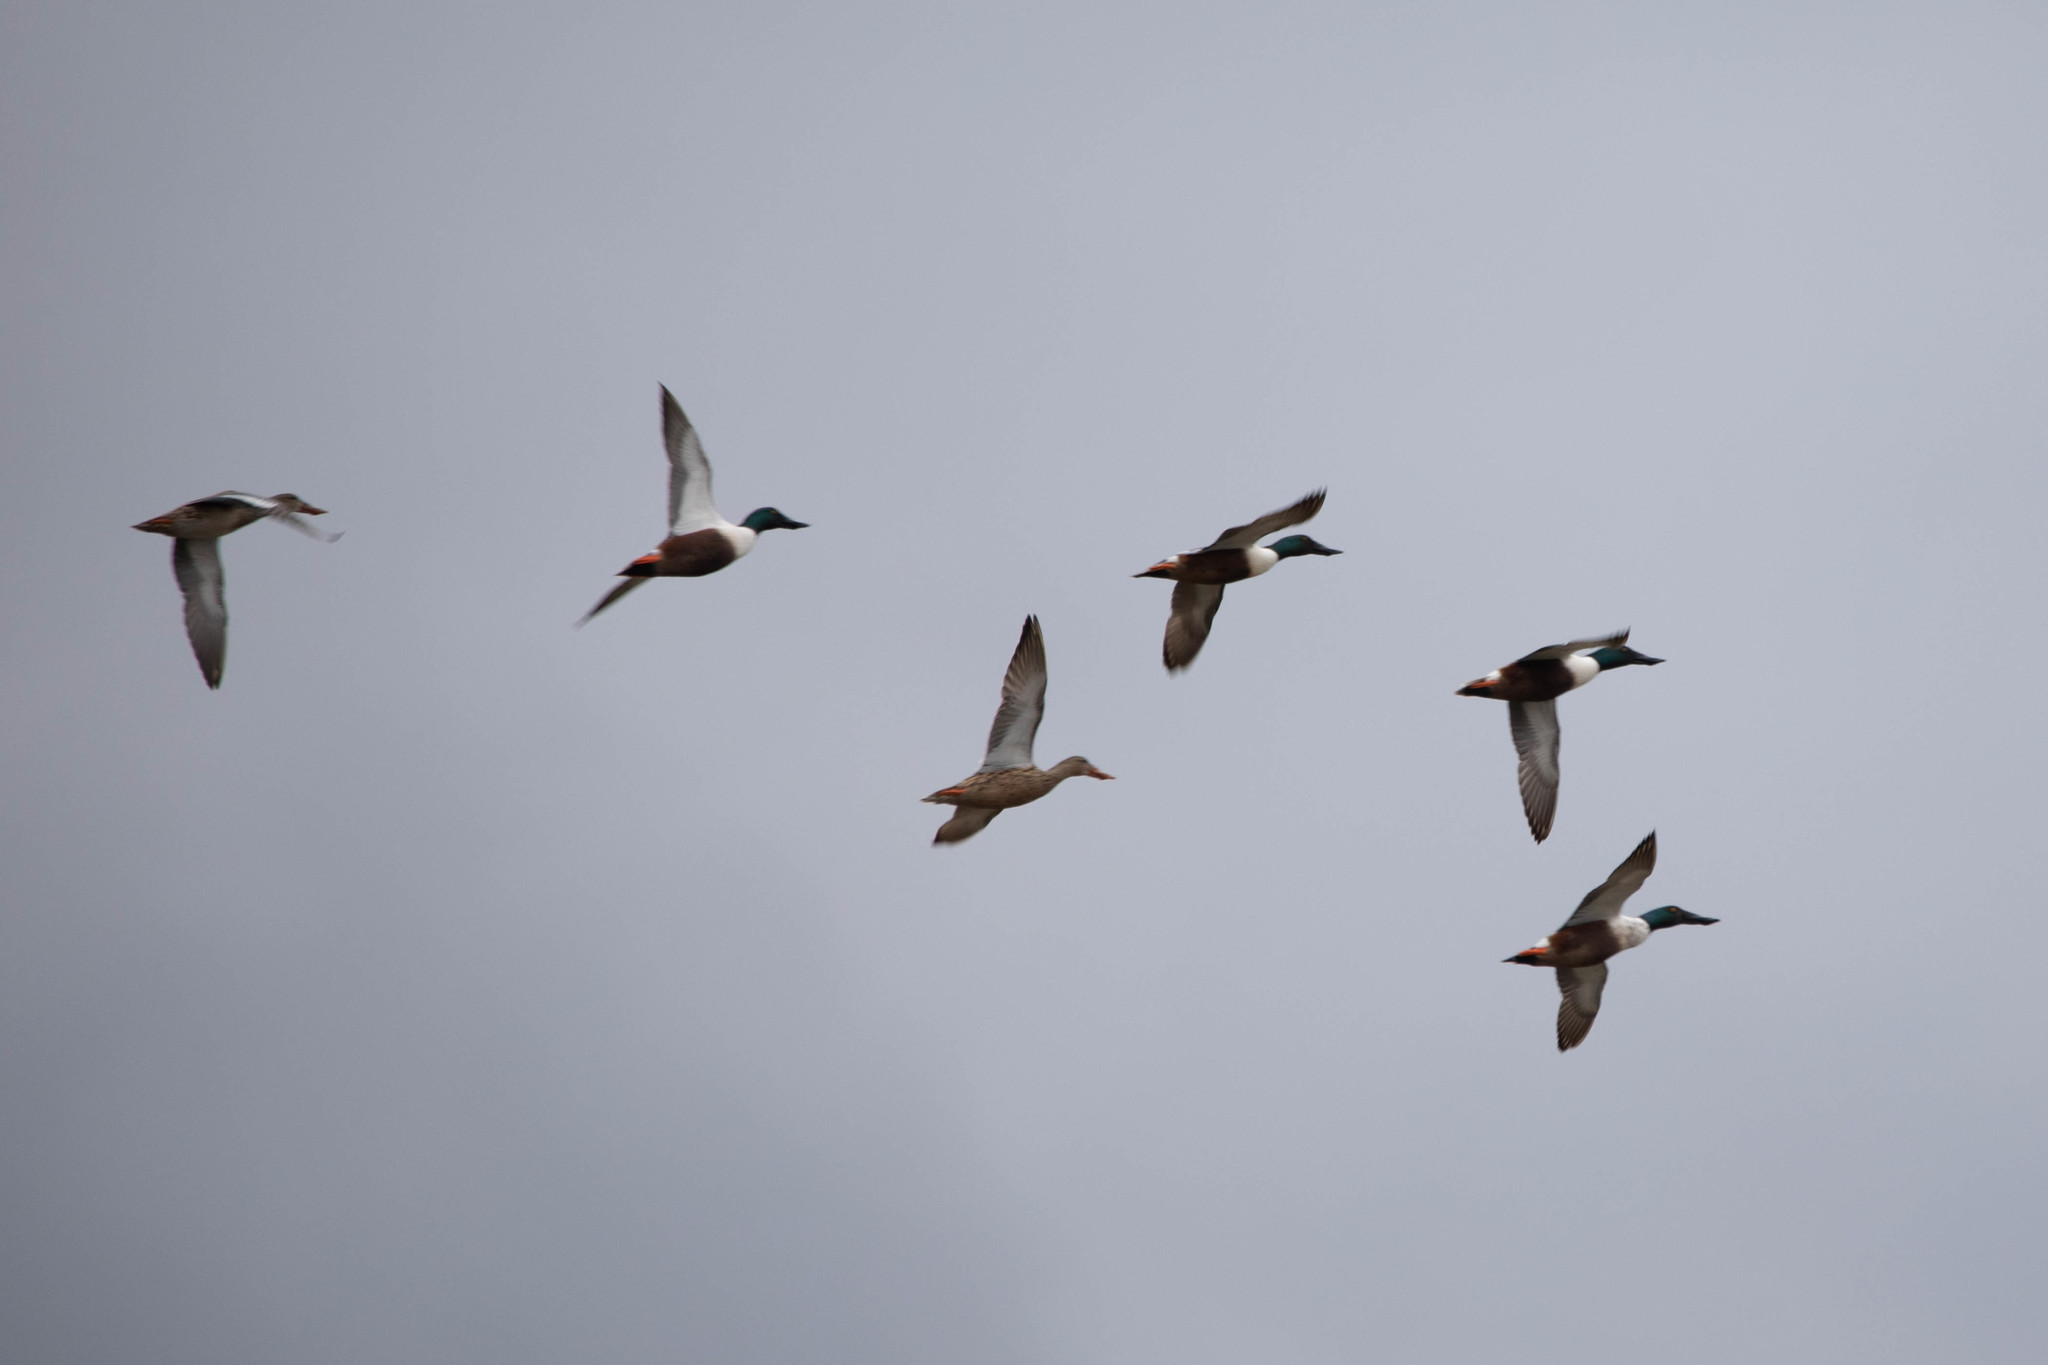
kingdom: Animalia
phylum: Chordata
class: Aves
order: Anseriformes
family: Anatidae
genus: Spatula
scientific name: Spatula clypeata
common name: Northern shoveler
